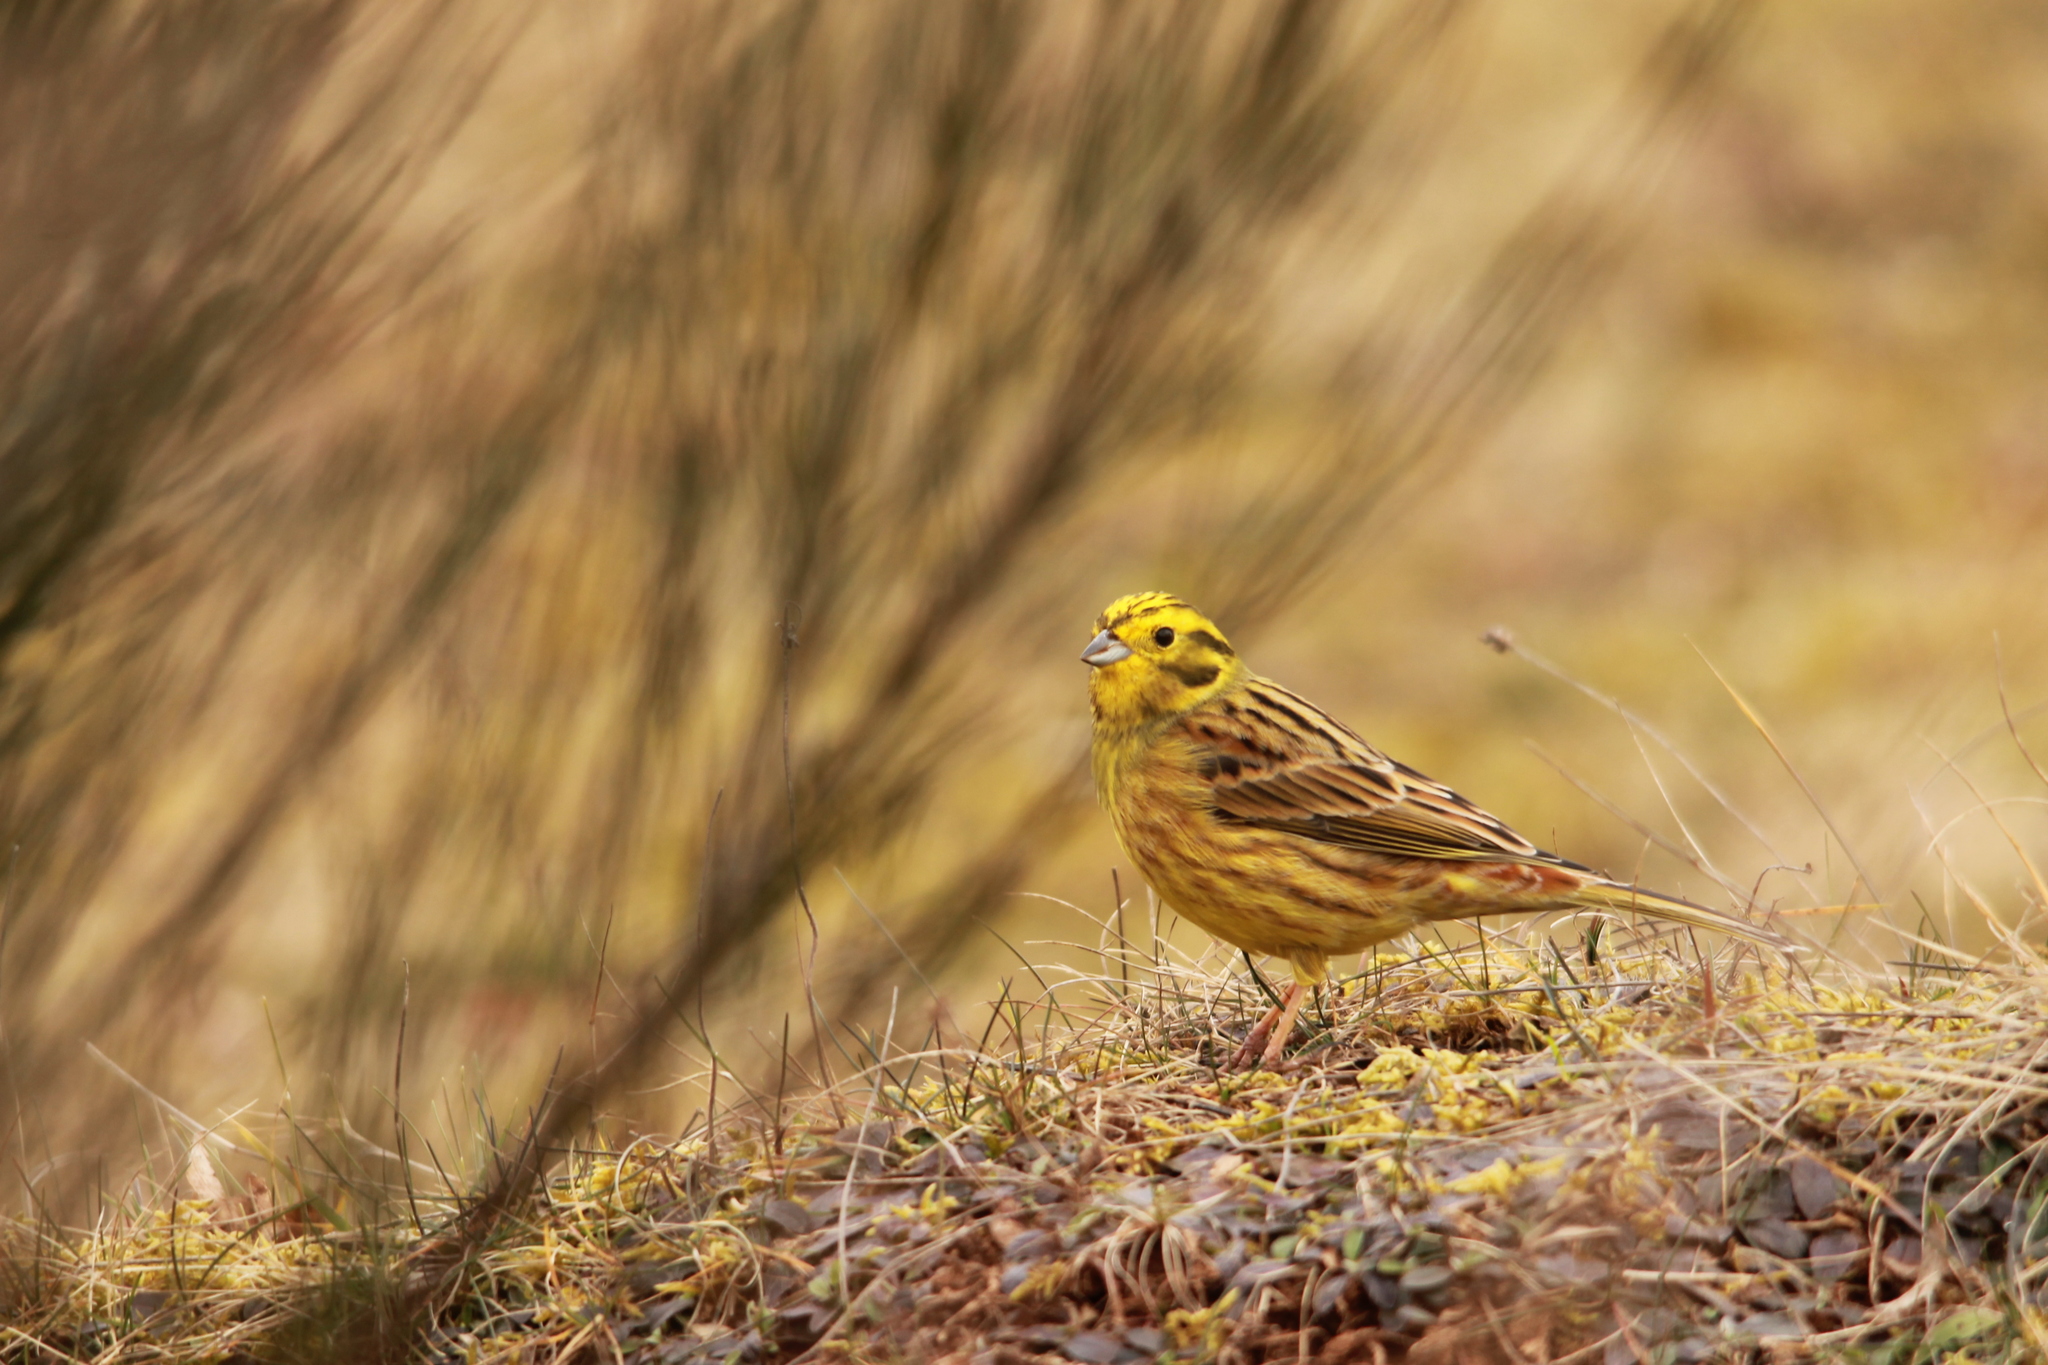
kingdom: Animalia
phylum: Chordata
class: Aves
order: Passeriformes
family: Emberizidae
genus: Emberiza
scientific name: Emberiza citrinella
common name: Yellowhammer
